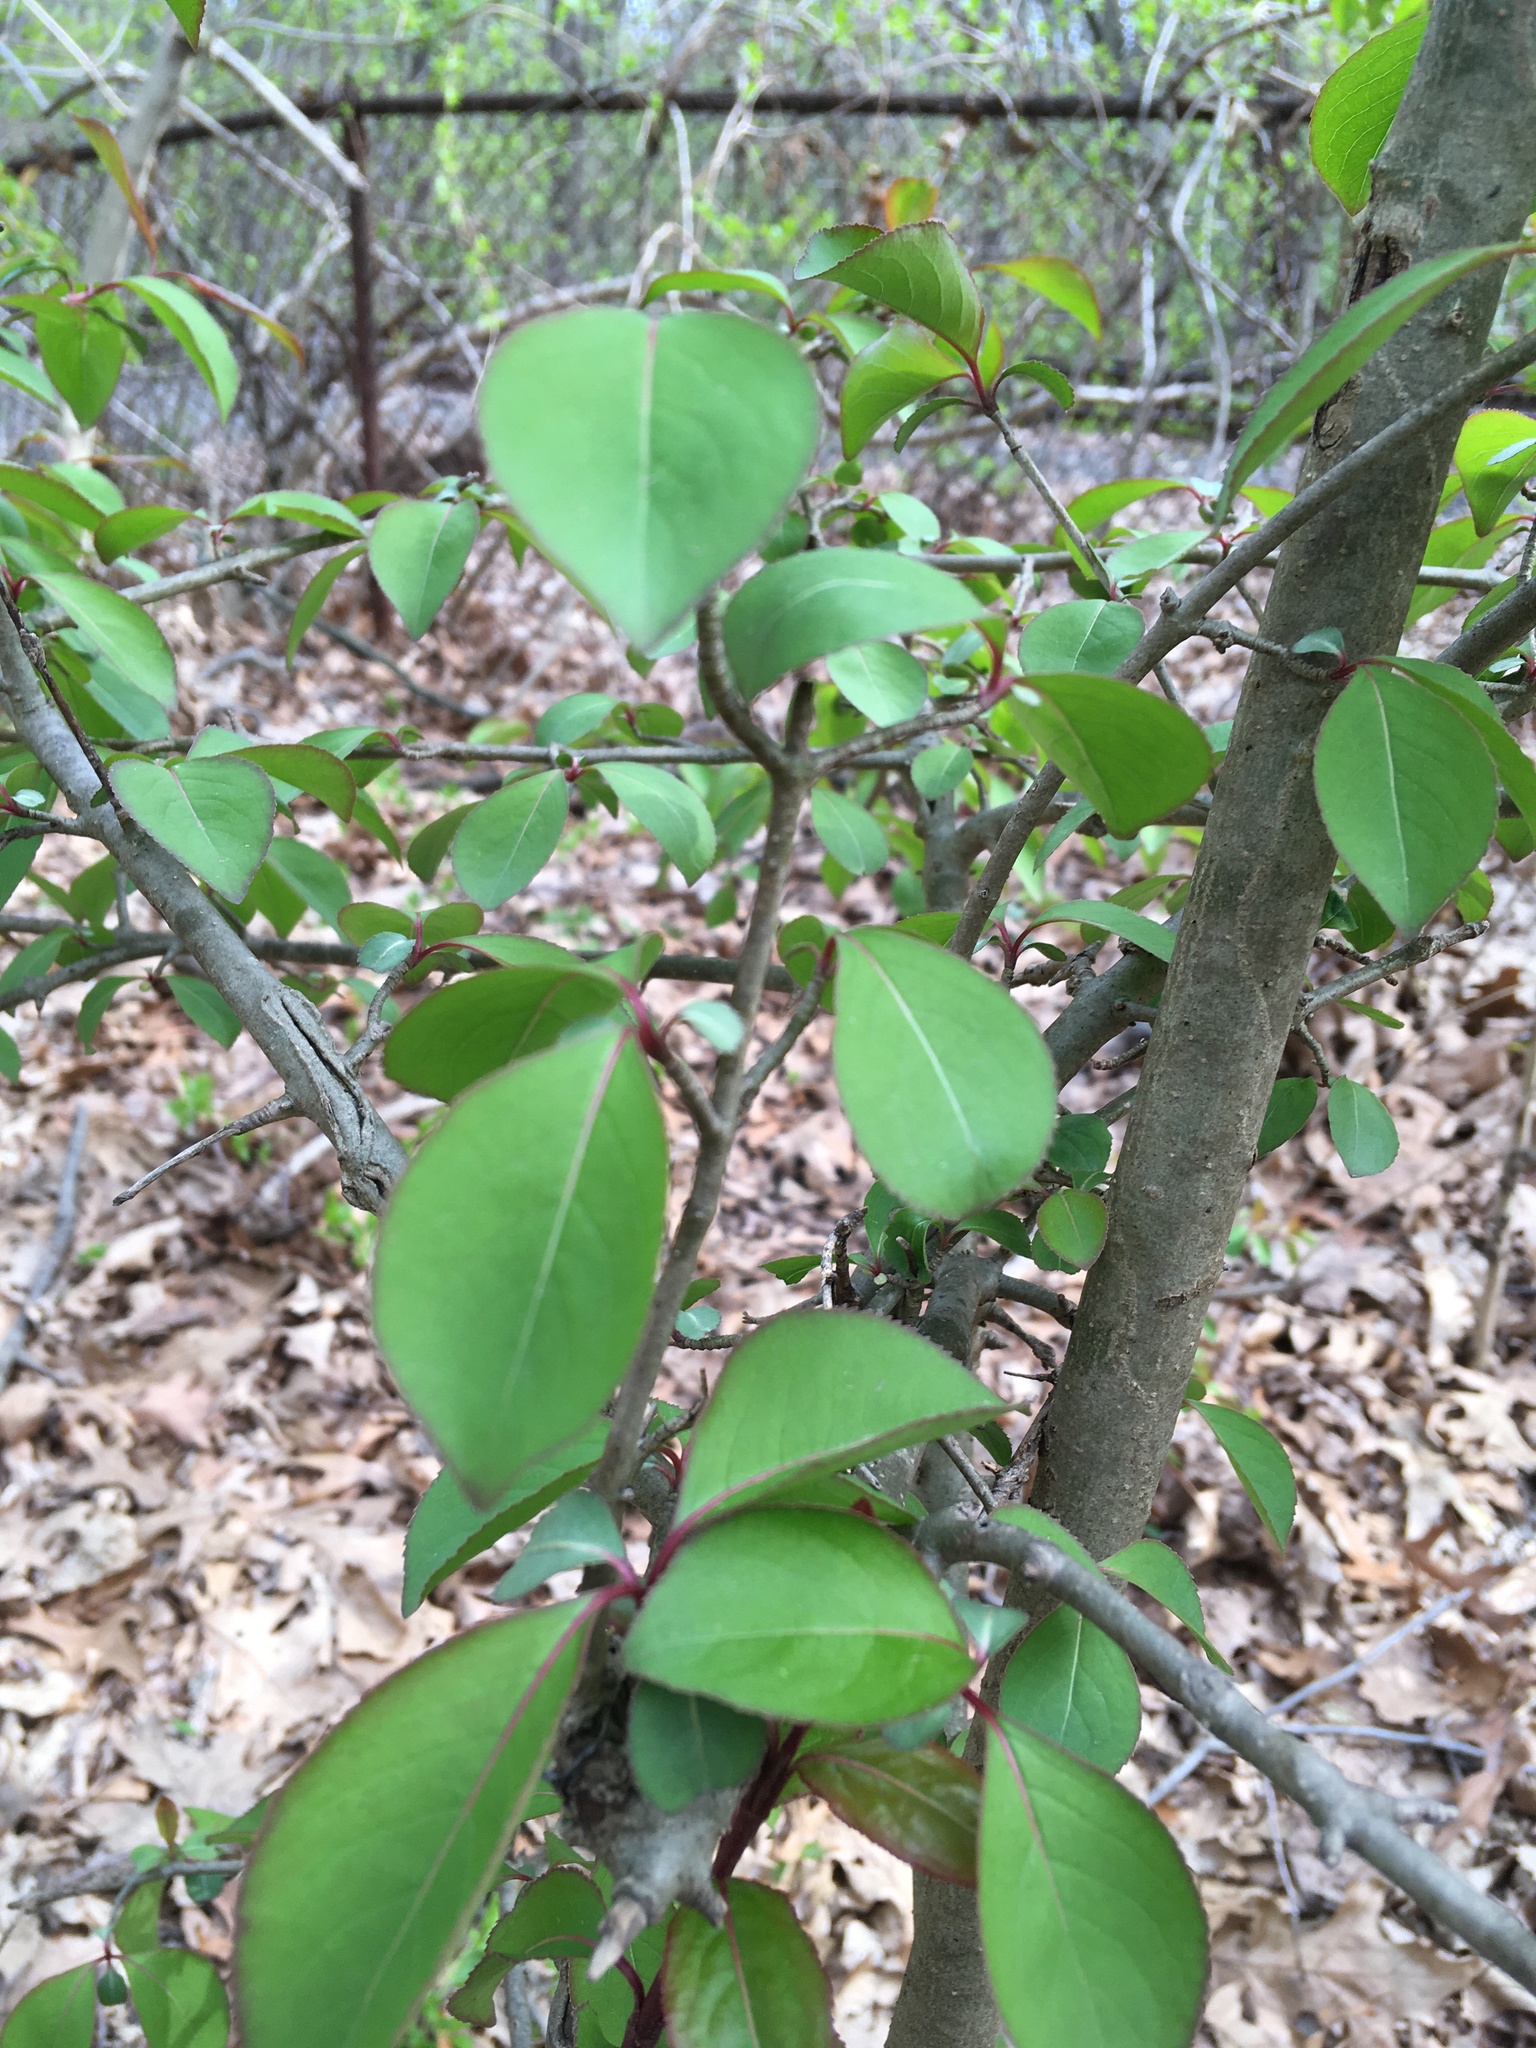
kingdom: Plantae
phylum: Tracheophyta
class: Magnoliopsida
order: Dipsacales
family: Viburnaceae
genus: Viburnum
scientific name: Viburnum prunifolium
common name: Black haw
